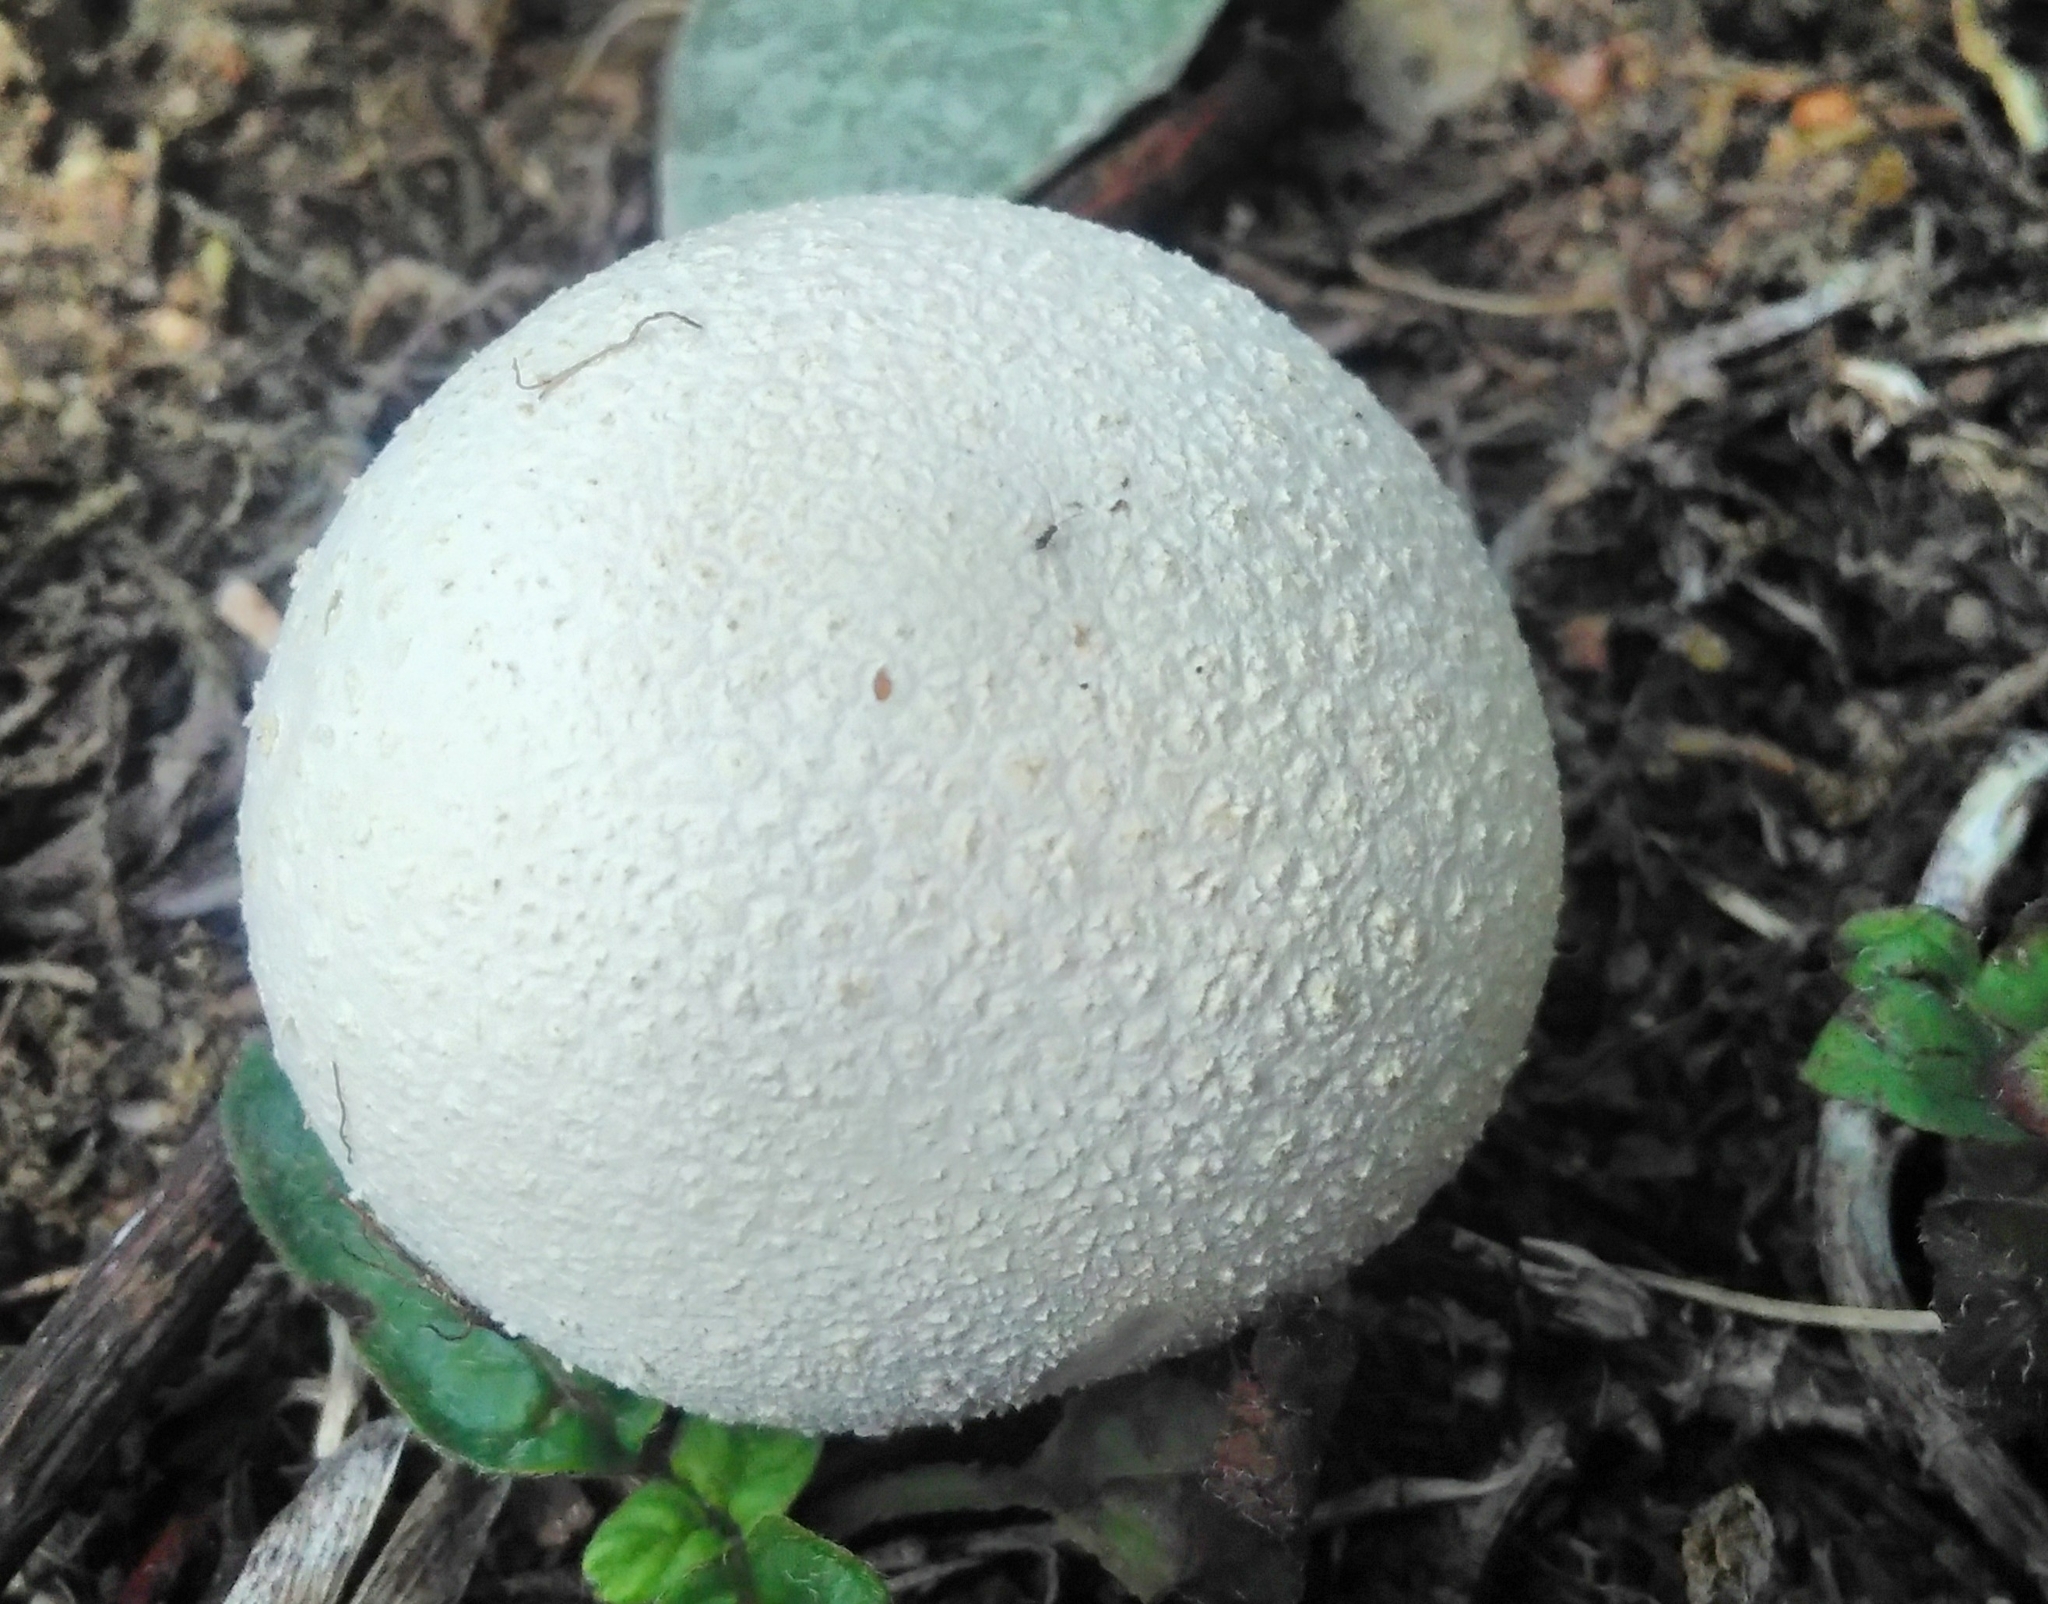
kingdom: Fungi
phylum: Basidiomycota
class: Agaricomycetes
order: Agaricales
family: Lycoperdaceae
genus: Lycoperdon
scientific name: Lycoperdon pratense
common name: Meadow puffball
